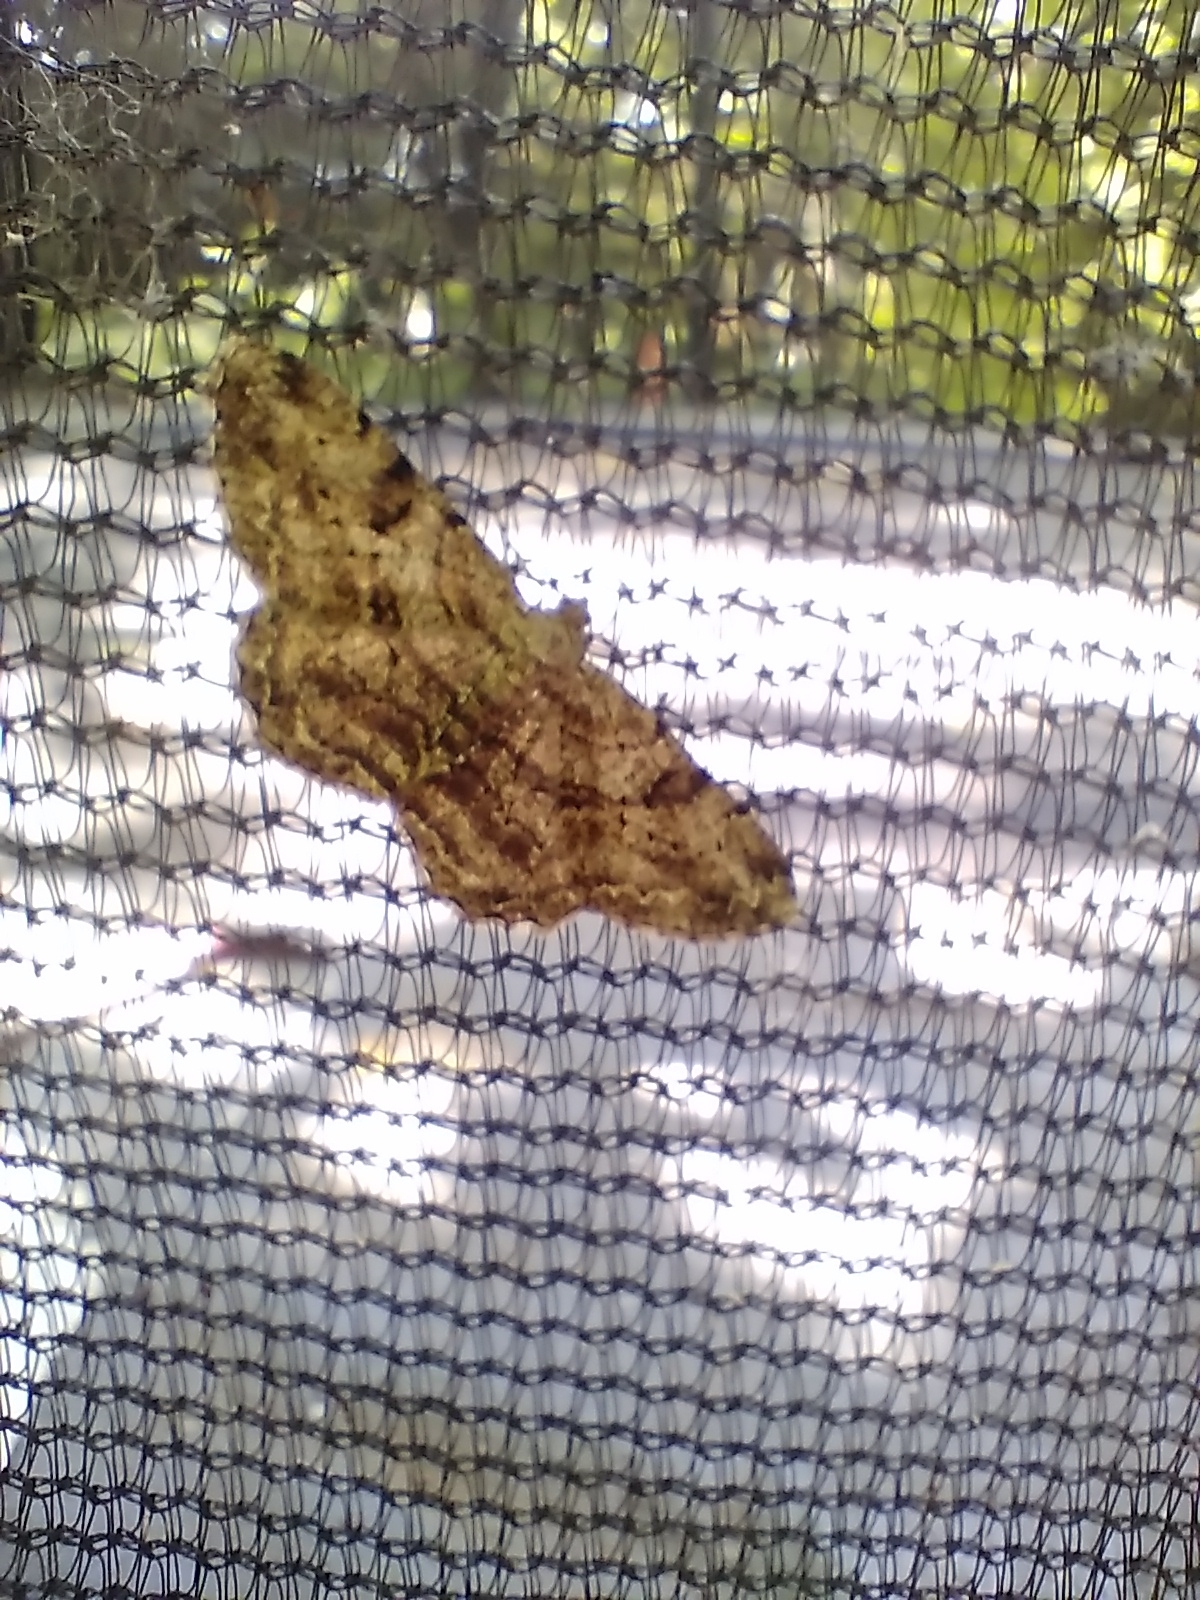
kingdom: Animalia
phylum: Arthropoda
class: Insecta
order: Lepidoptera
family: Geometridae
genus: Peribatodes
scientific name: Peribatodes rhomboidaria
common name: Willow beauty
